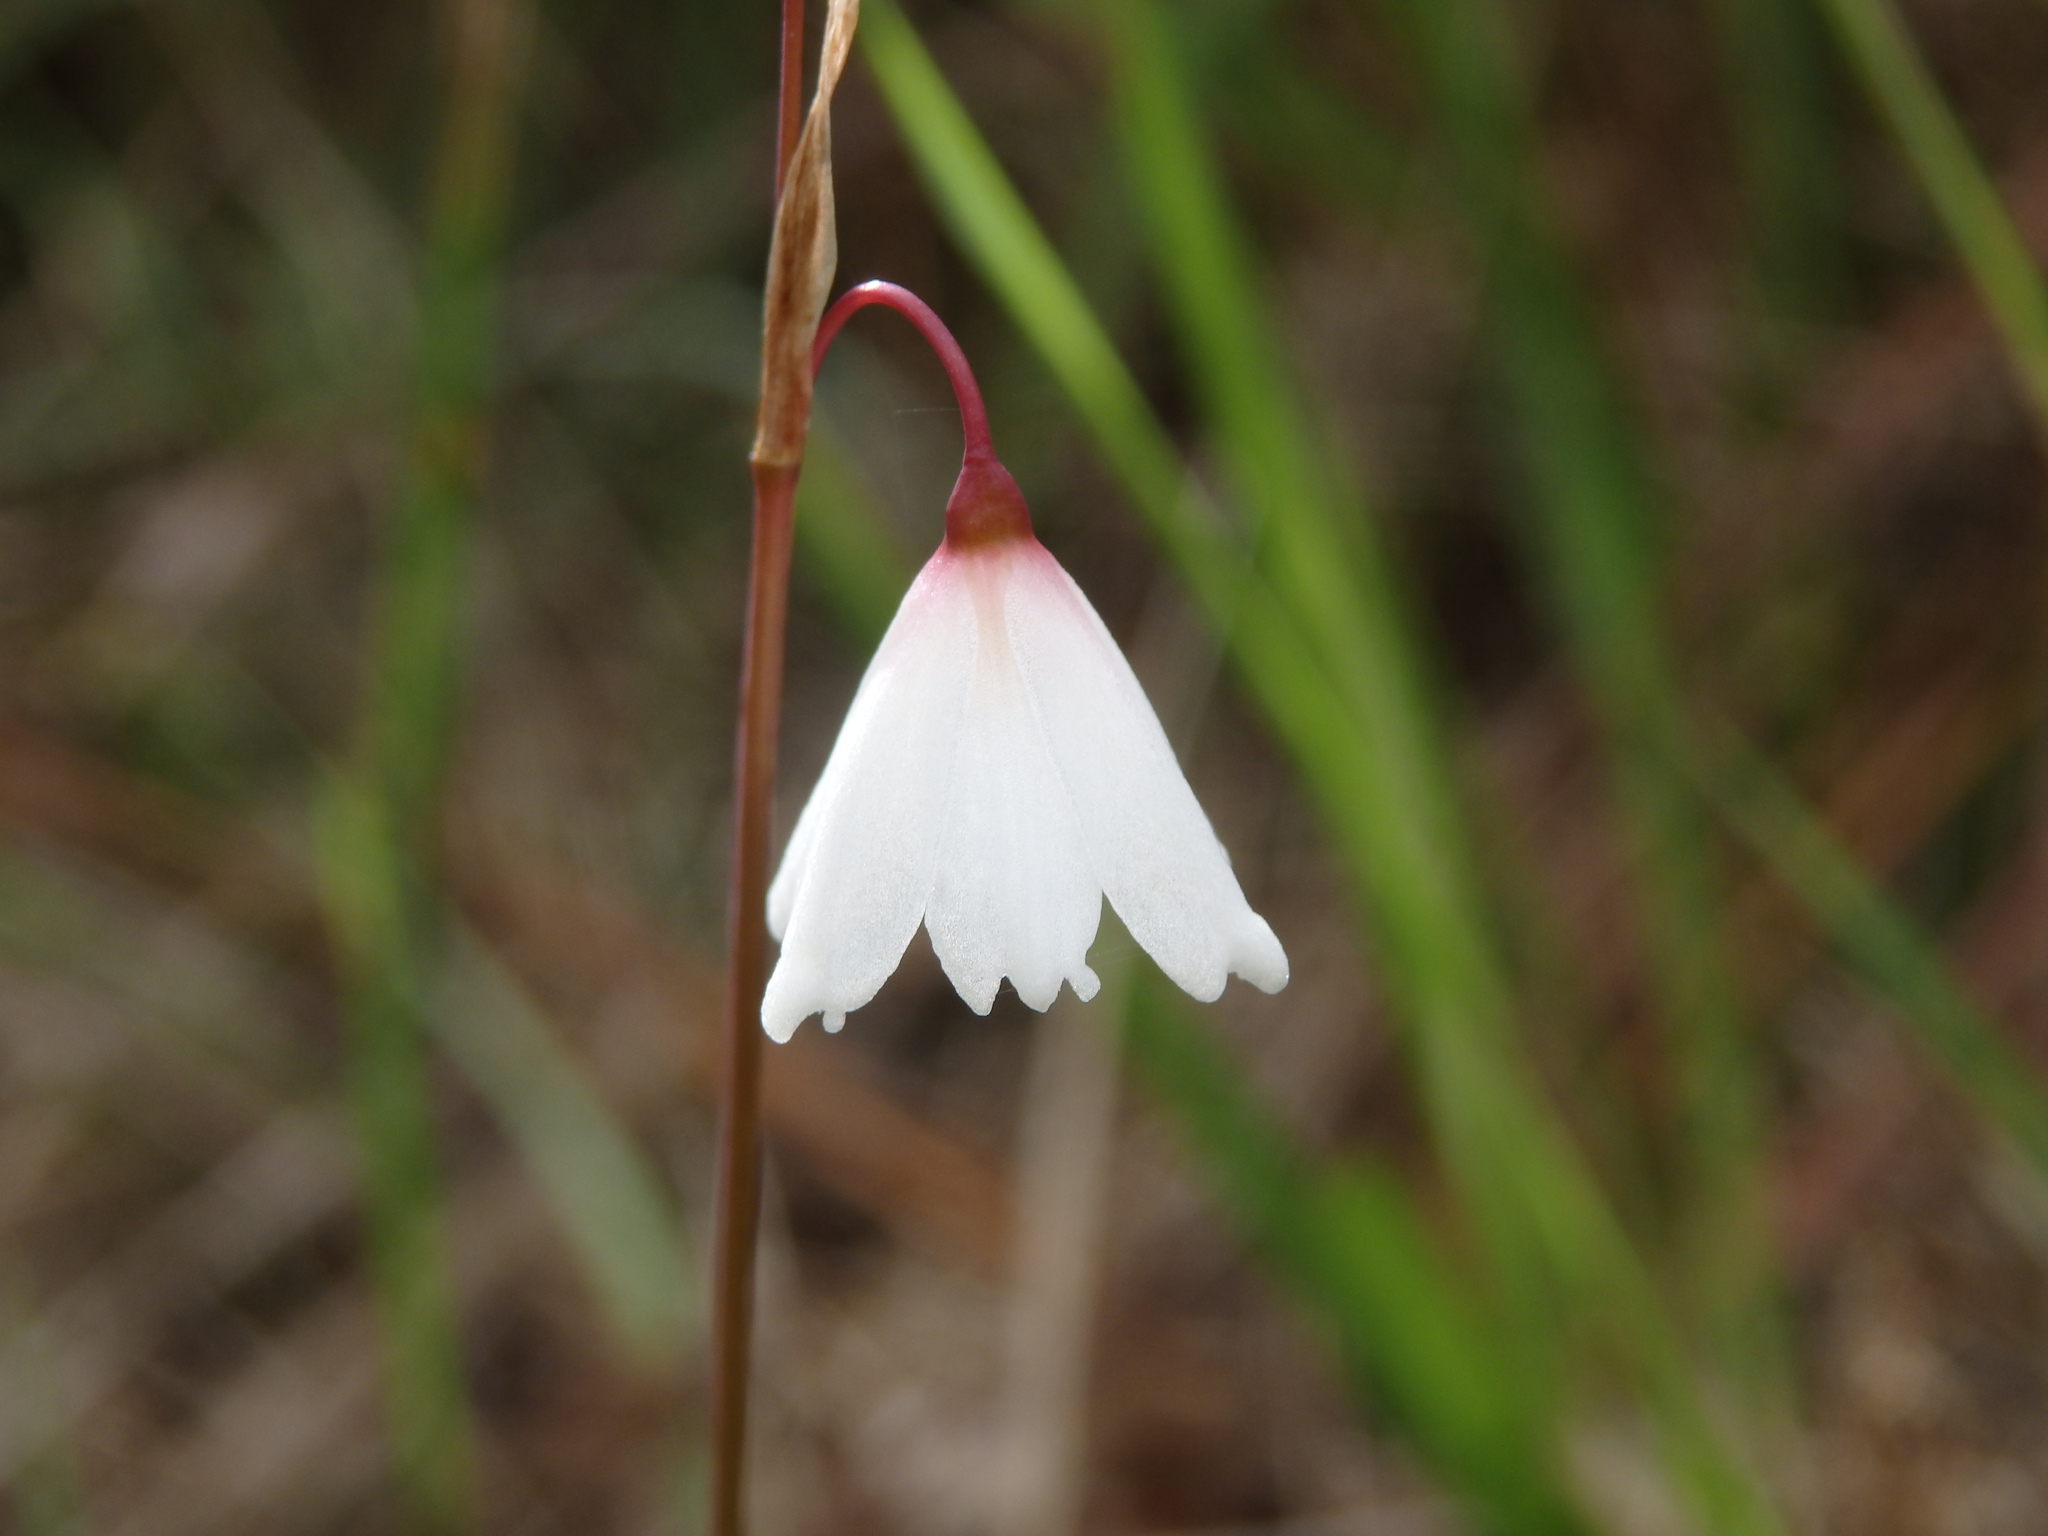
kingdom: Plantae
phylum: Tracheophyta
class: Liliopsida
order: Asparagales
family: Amaryllidaceae
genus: Acis
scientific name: Acis autumnalis
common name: Autumn snowflake
